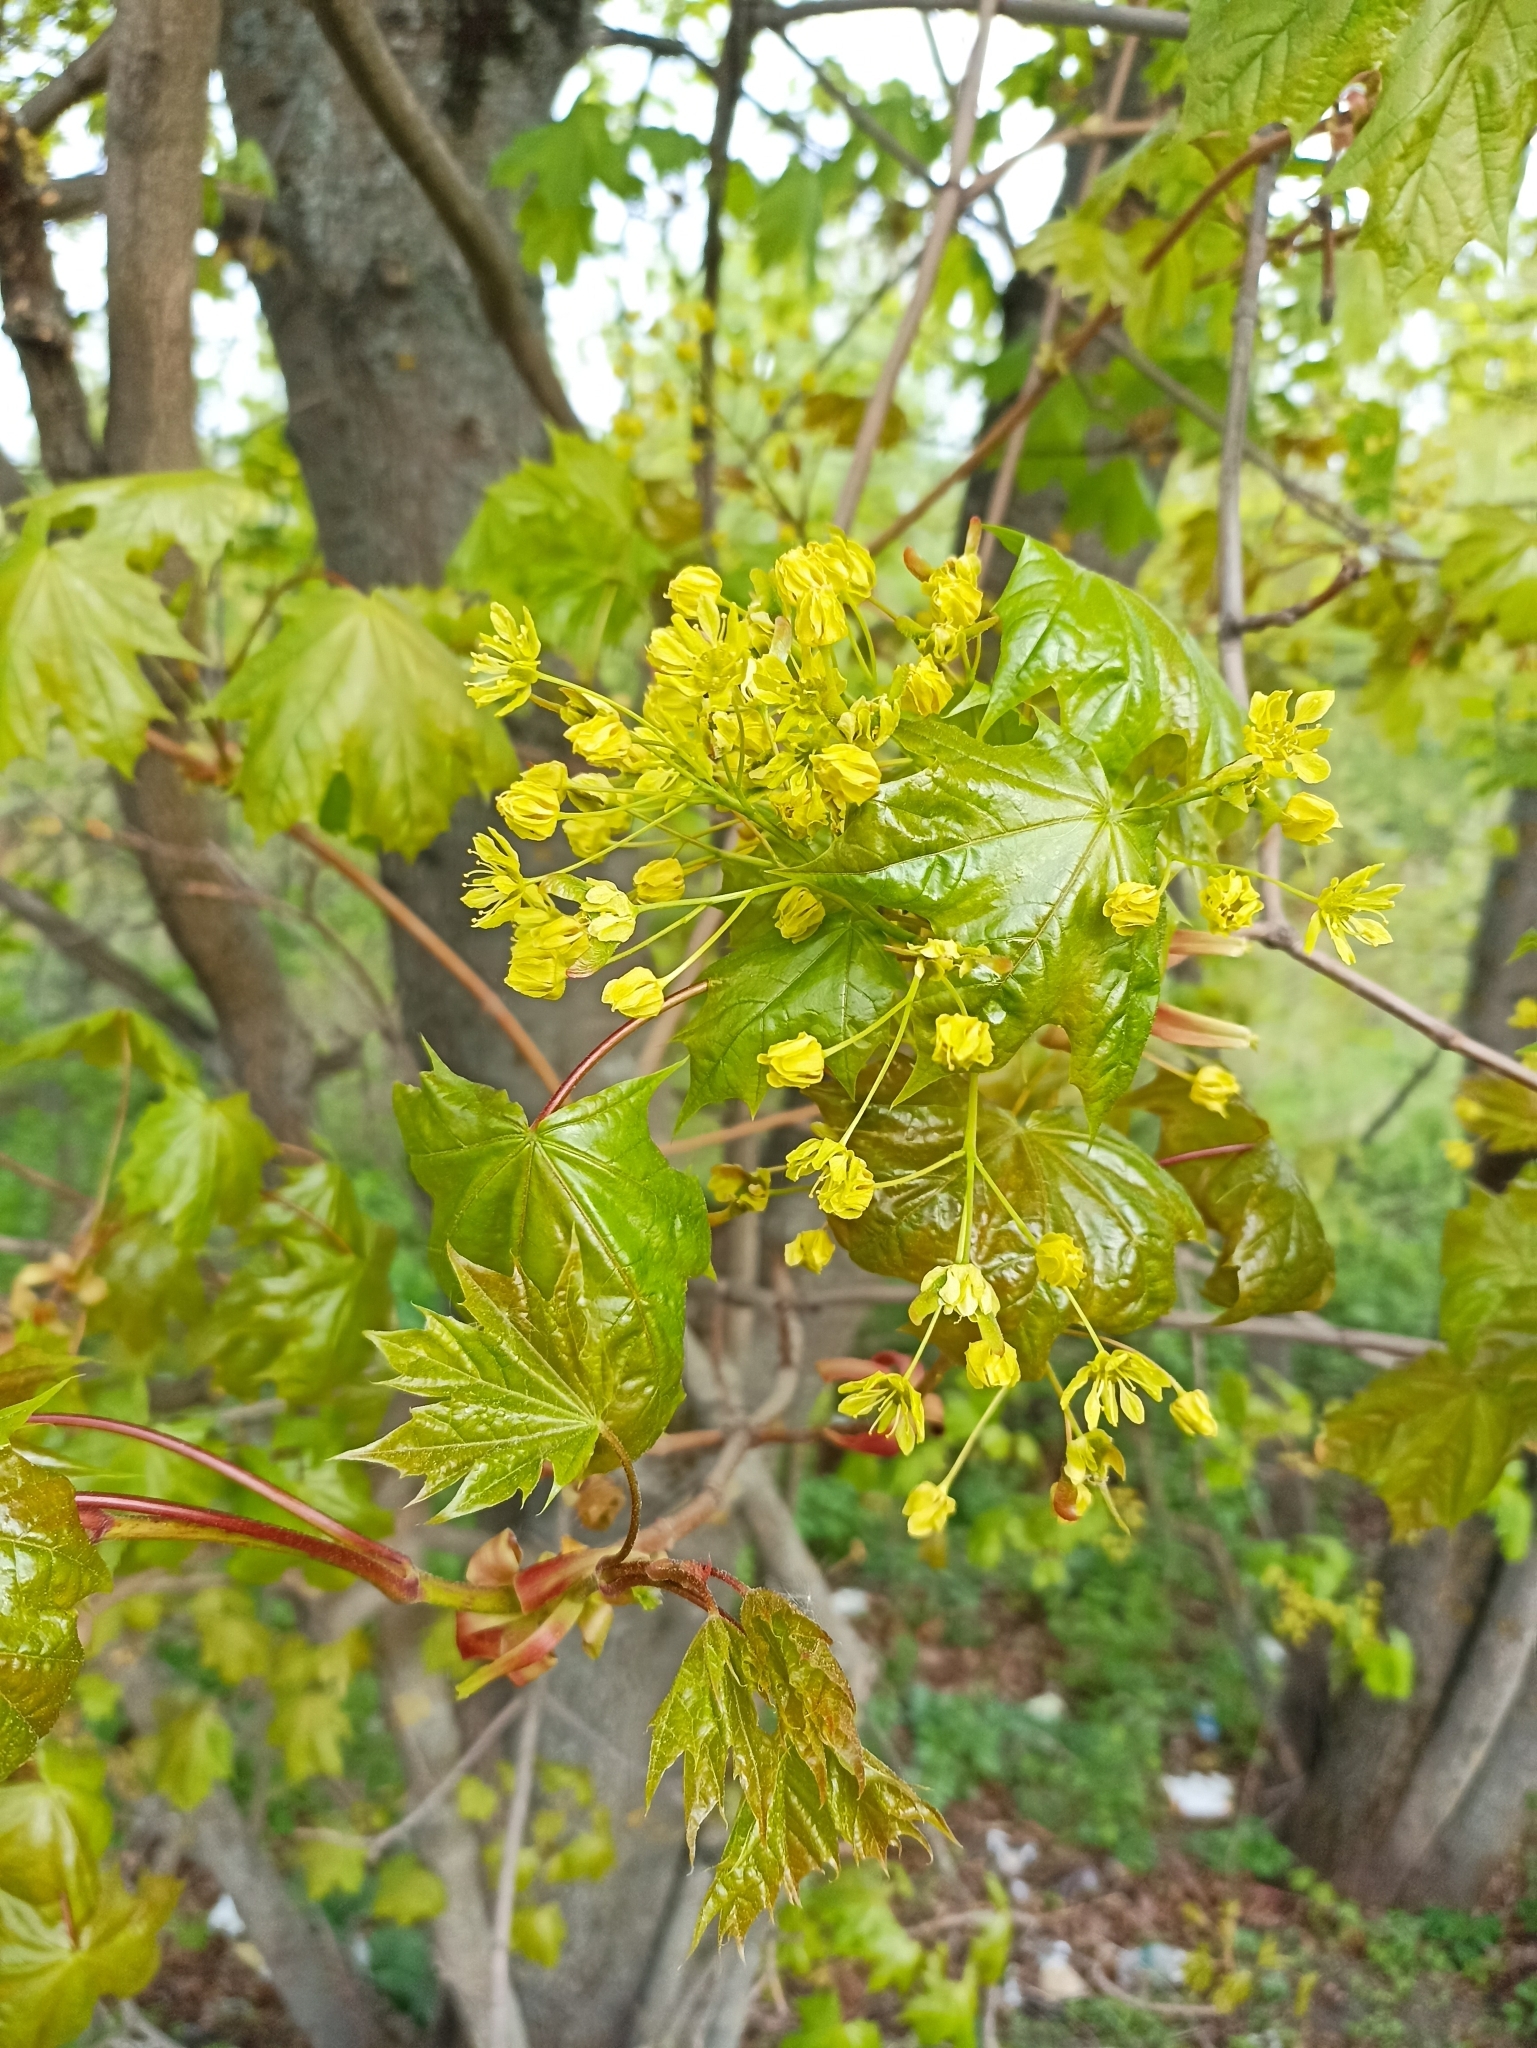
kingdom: Plantae
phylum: Tracheophyta
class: Magnoliopsida
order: Sapindales
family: Sapindaceae
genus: Acer
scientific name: Acer platanoides
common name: Norway maple
